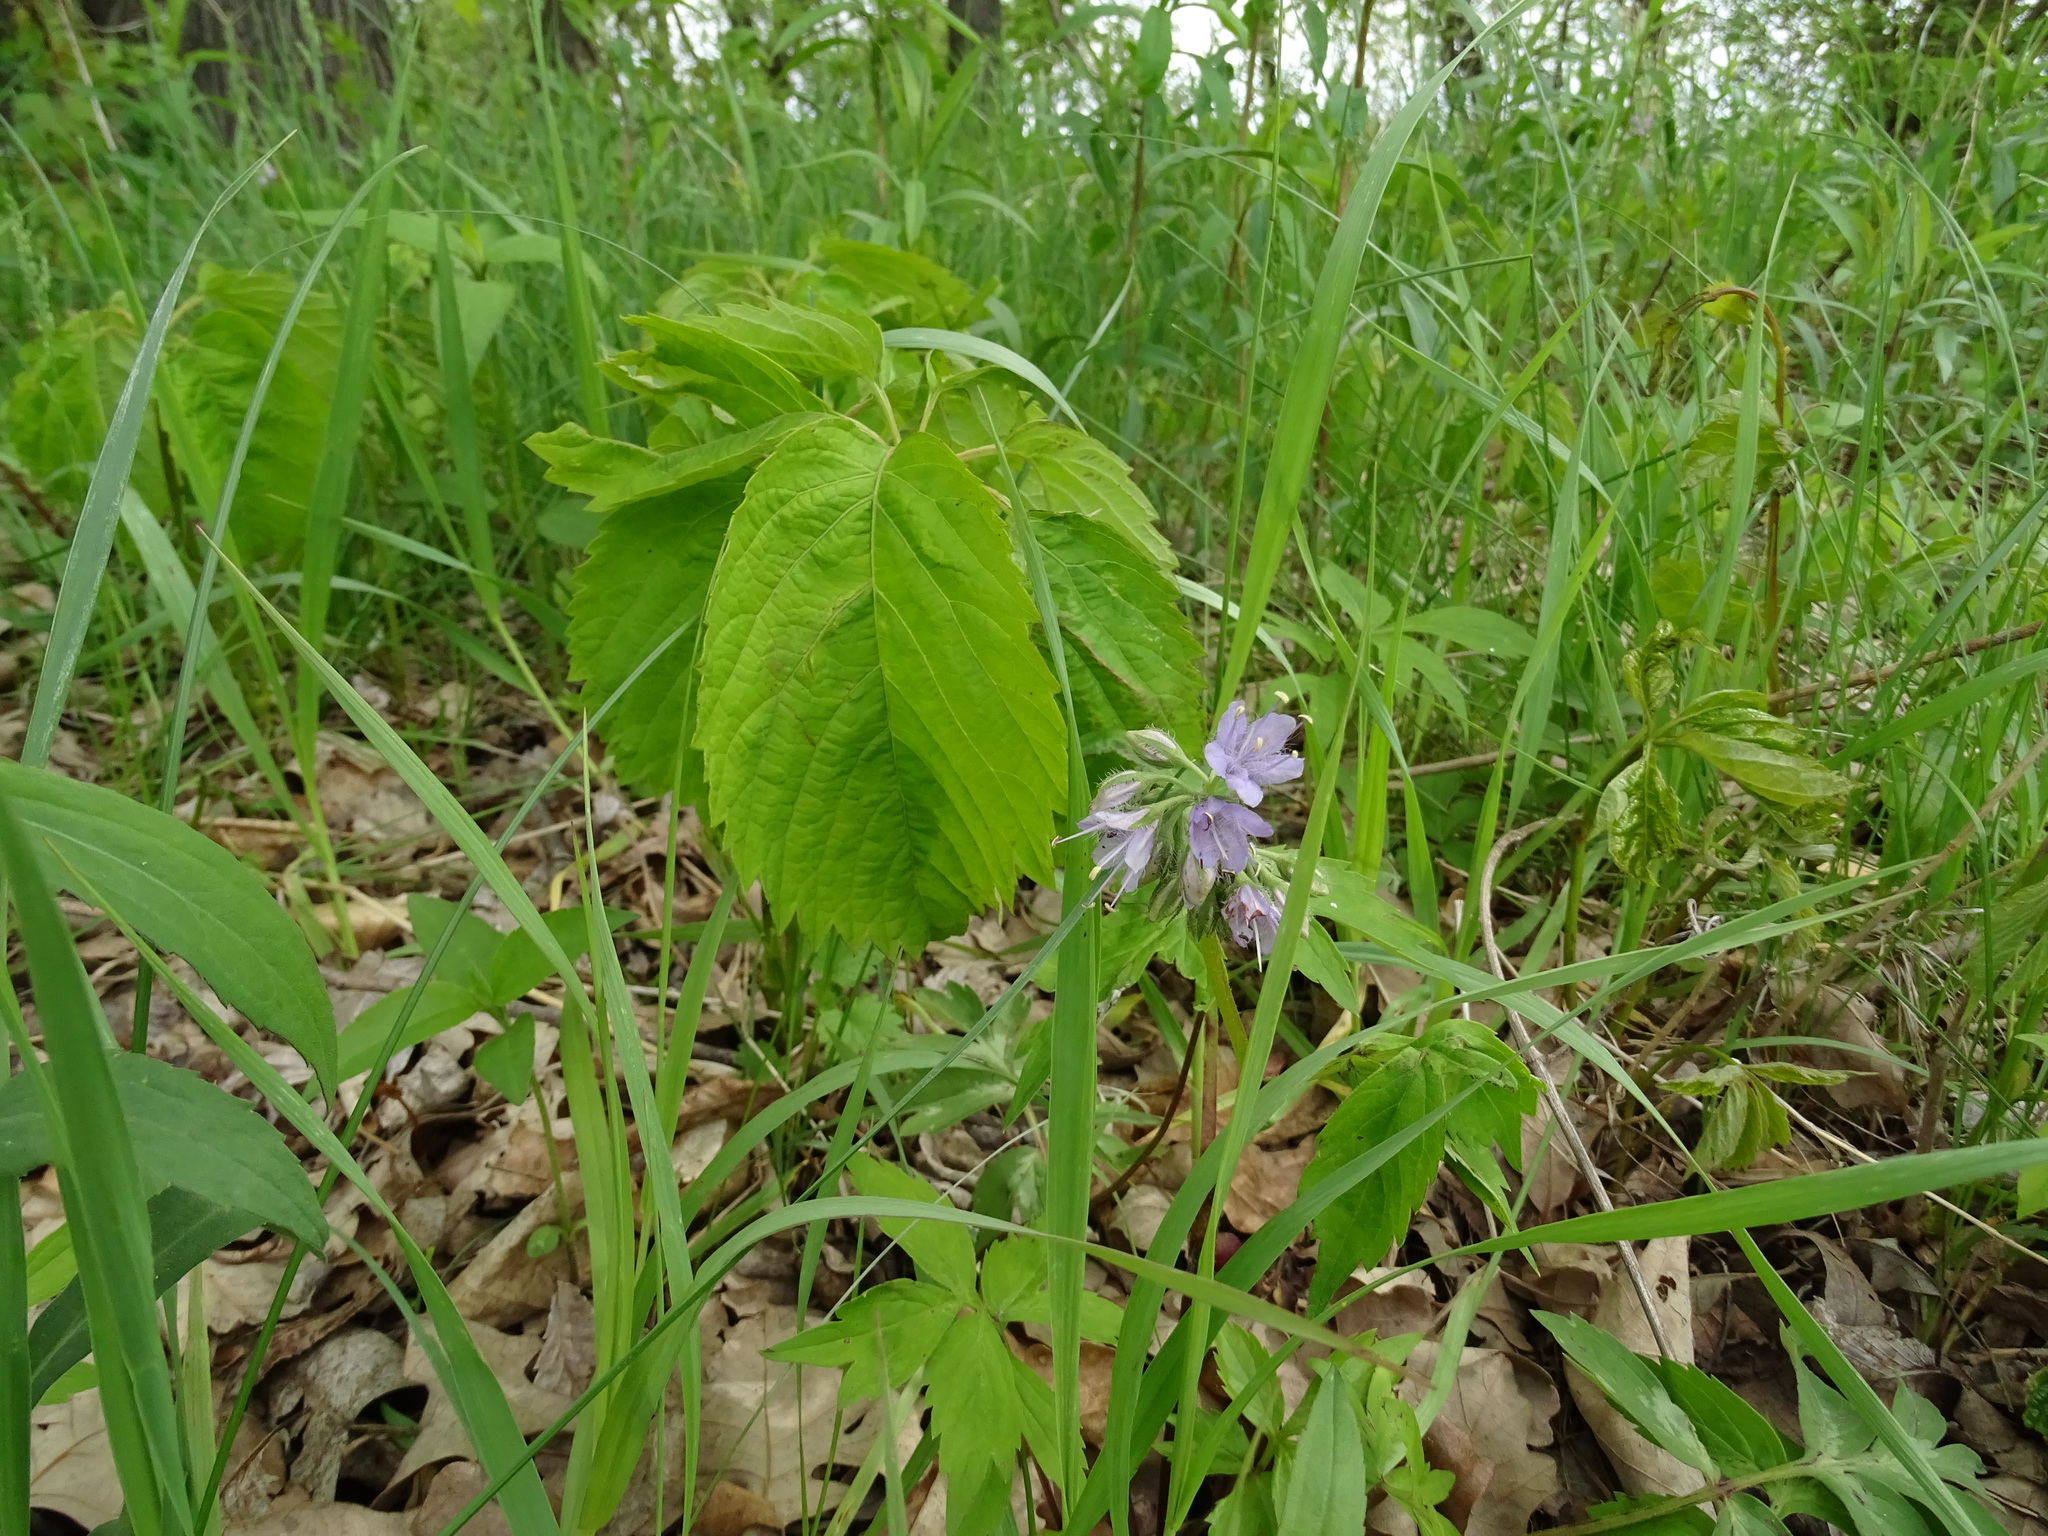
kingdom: Plantae
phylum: Tracheophyta
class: Magnoliopsida
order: Boraginales
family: Hydrophyllaceae
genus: Hydrophyllum
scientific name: Hydrophyllum virginianum
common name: Virginia waterleaf
